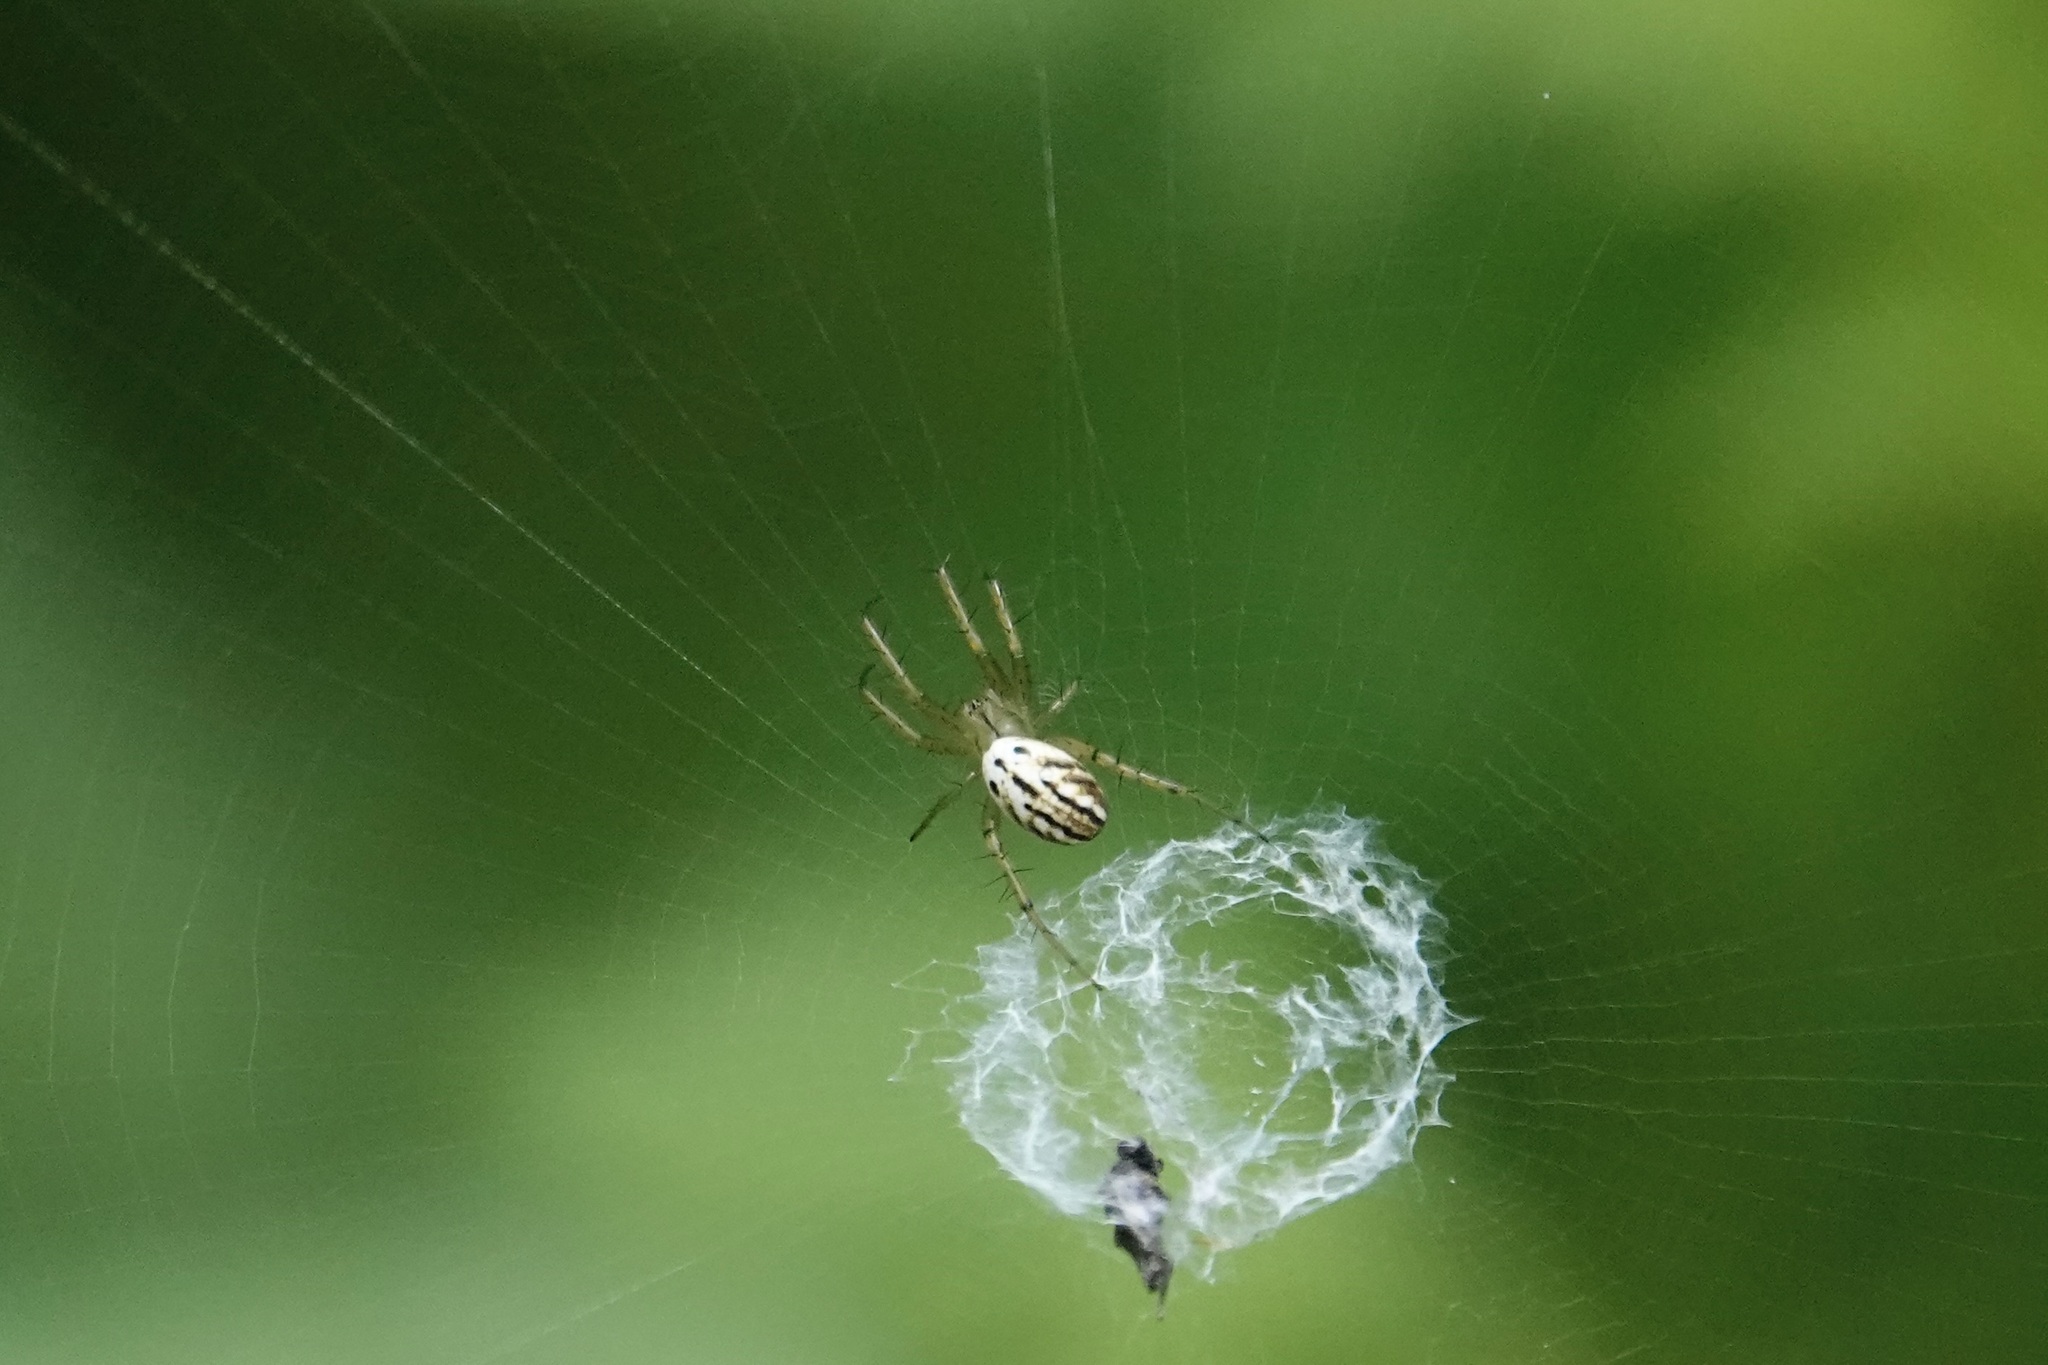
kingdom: Animalia
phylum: Arthropoda
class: Arachnida
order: Araneae
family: Araneidae
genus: Mangora
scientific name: Mangora gibberosa
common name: Lined orbweaver
